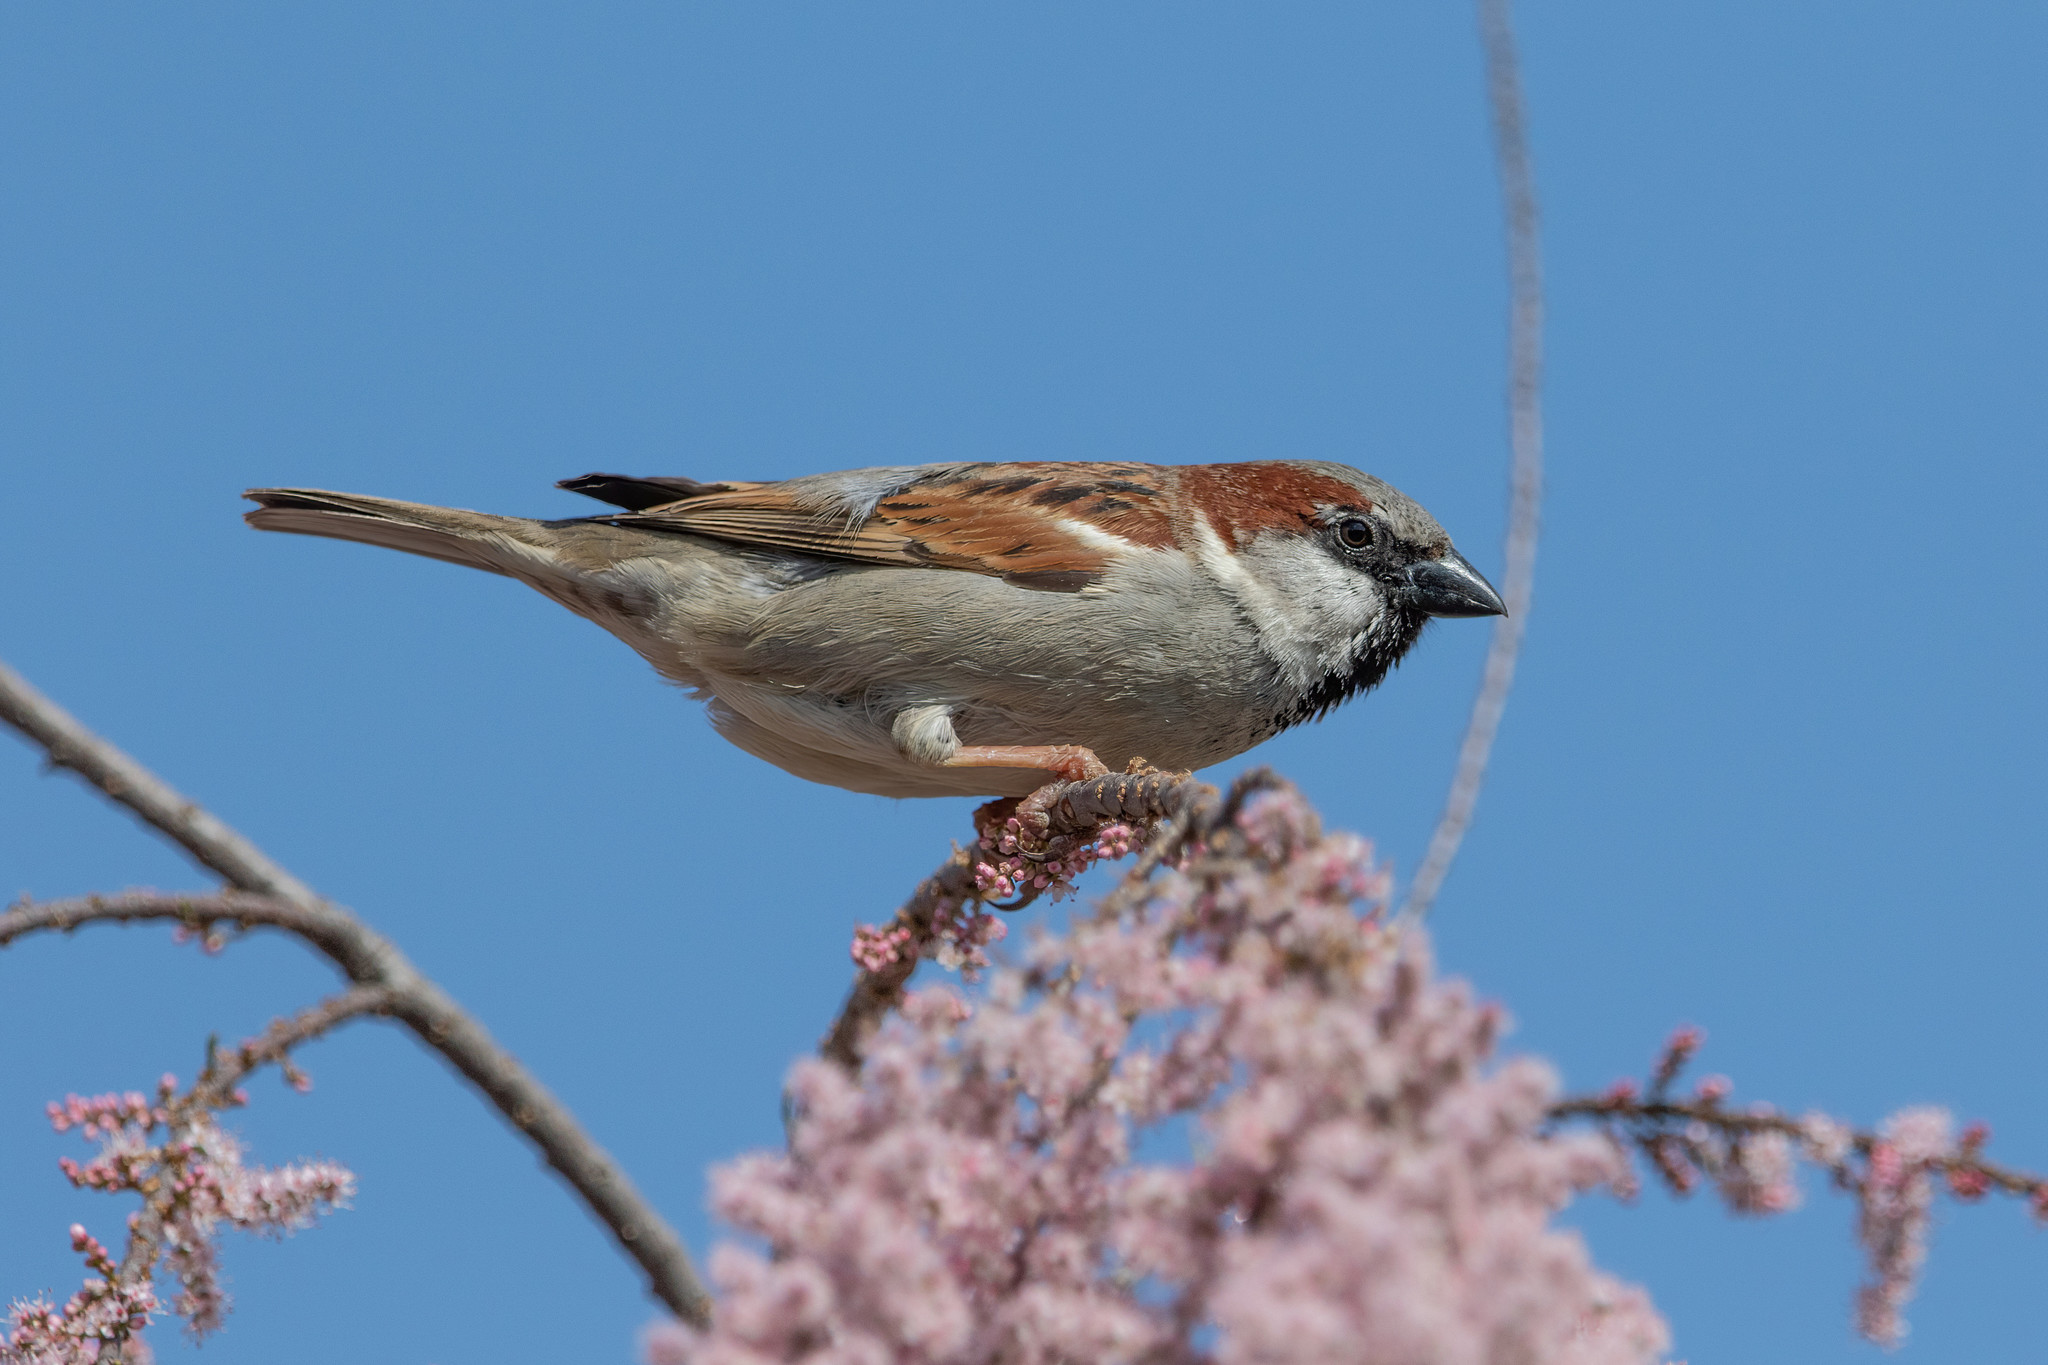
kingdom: Animalia
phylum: Chordata
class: Aves
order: Passeriformes
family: Passeridae
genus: Passer
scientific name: Passer domesticus
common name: House sparrow
